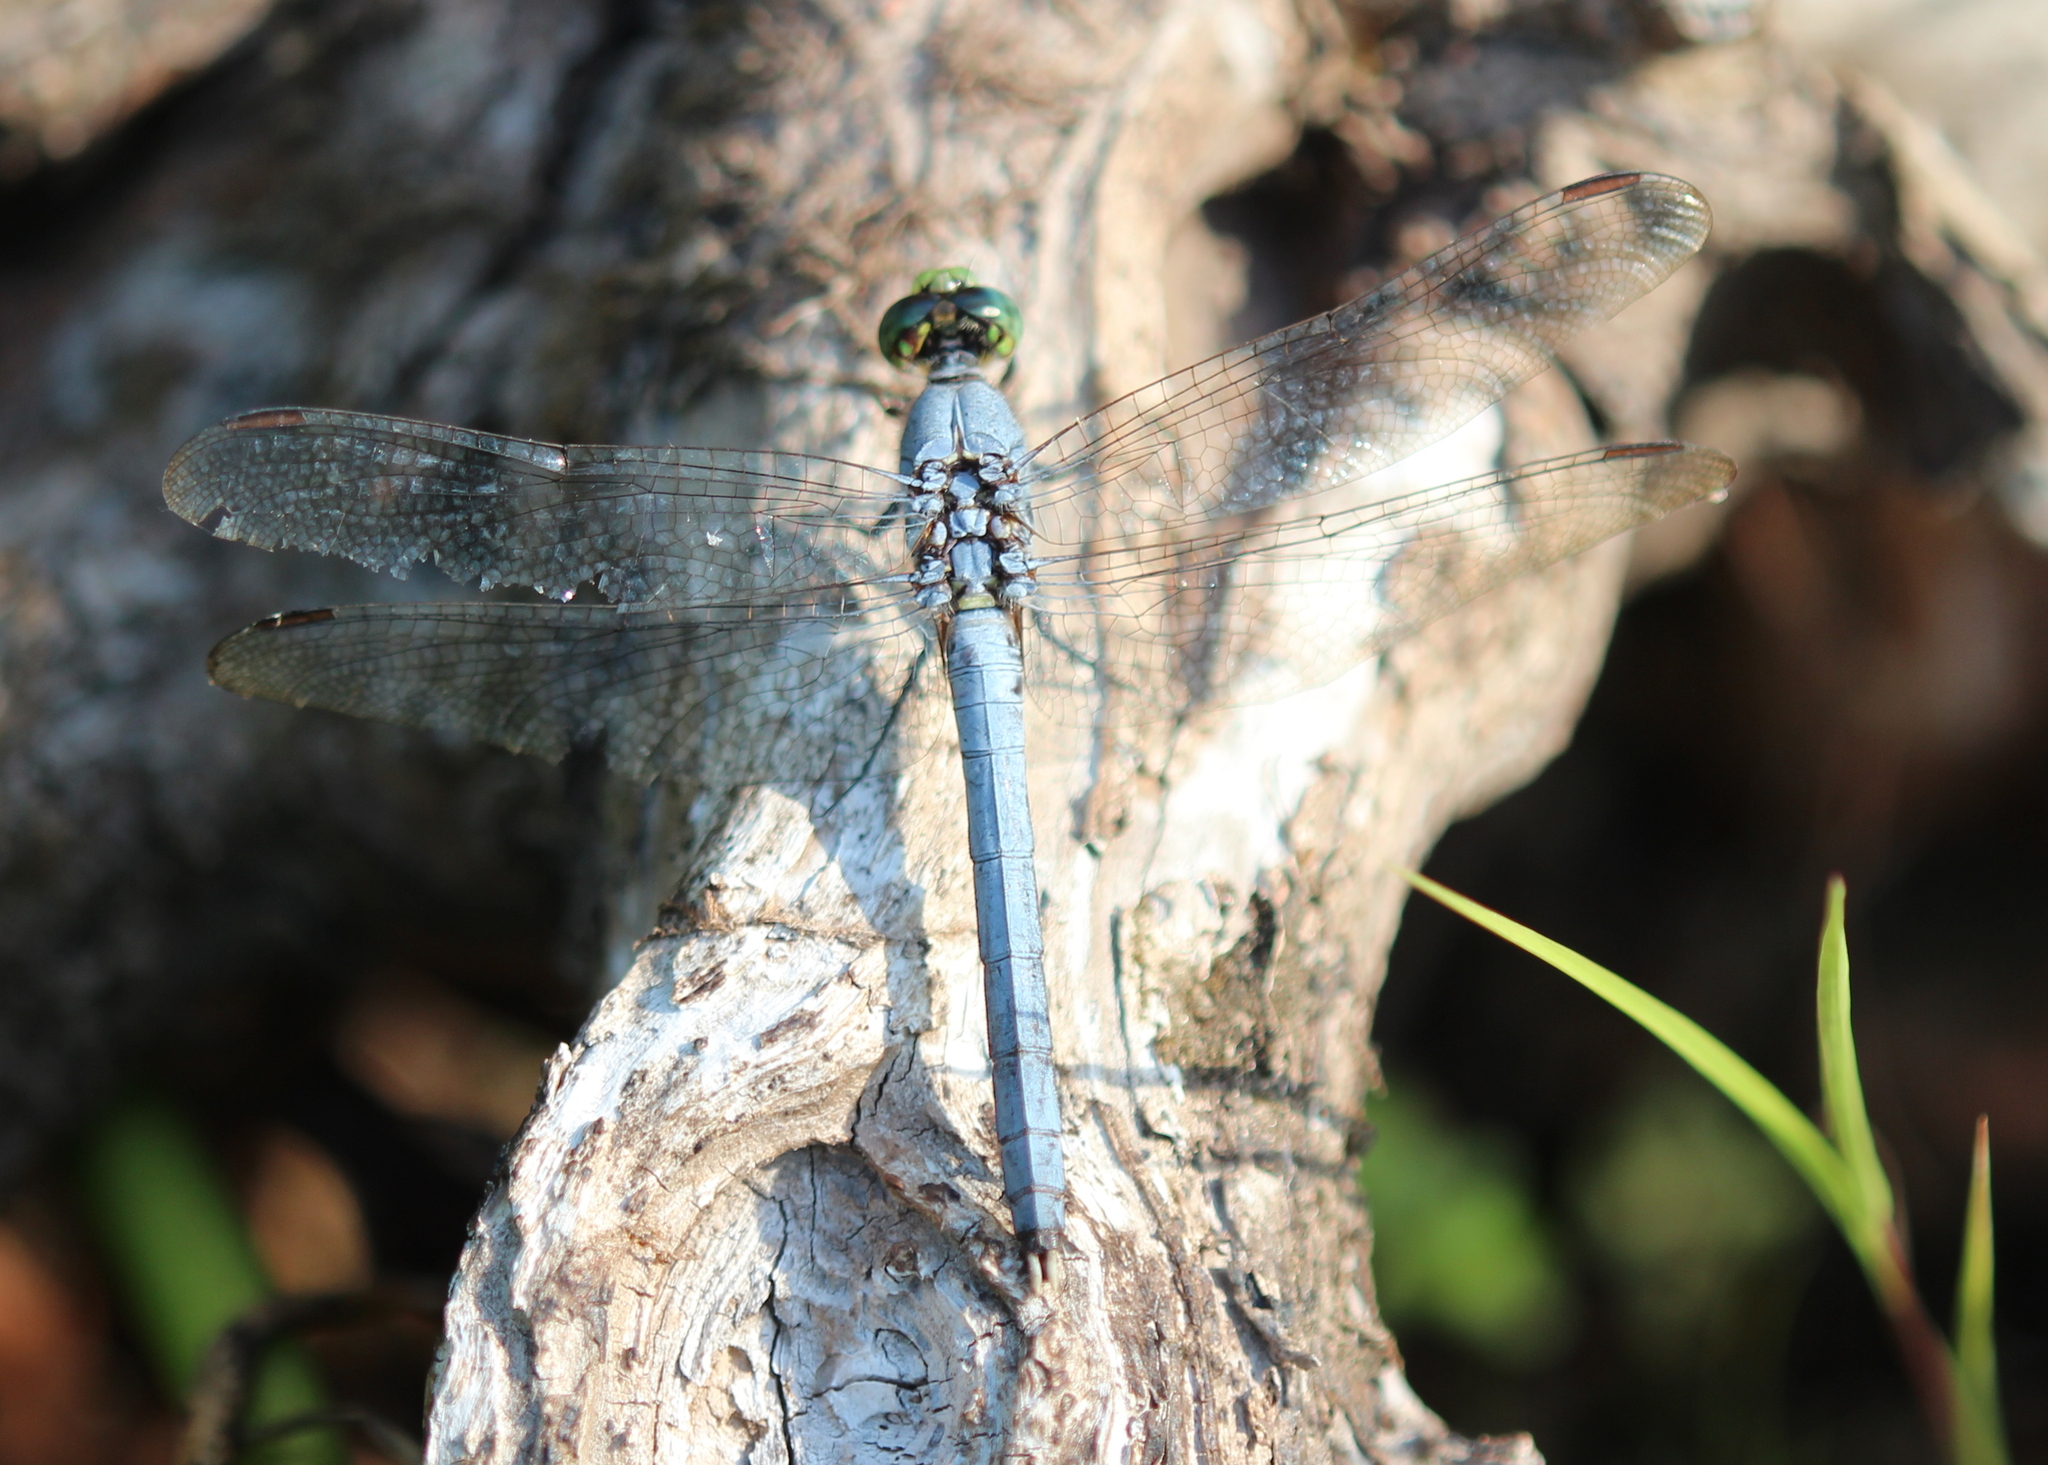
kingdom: Animalia
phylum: Arthropoda
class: Insecta
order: Odonata
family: Libellulidae
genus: Erythemis
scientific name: Erythemis simplicicollis
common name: Eastern pondhawk
